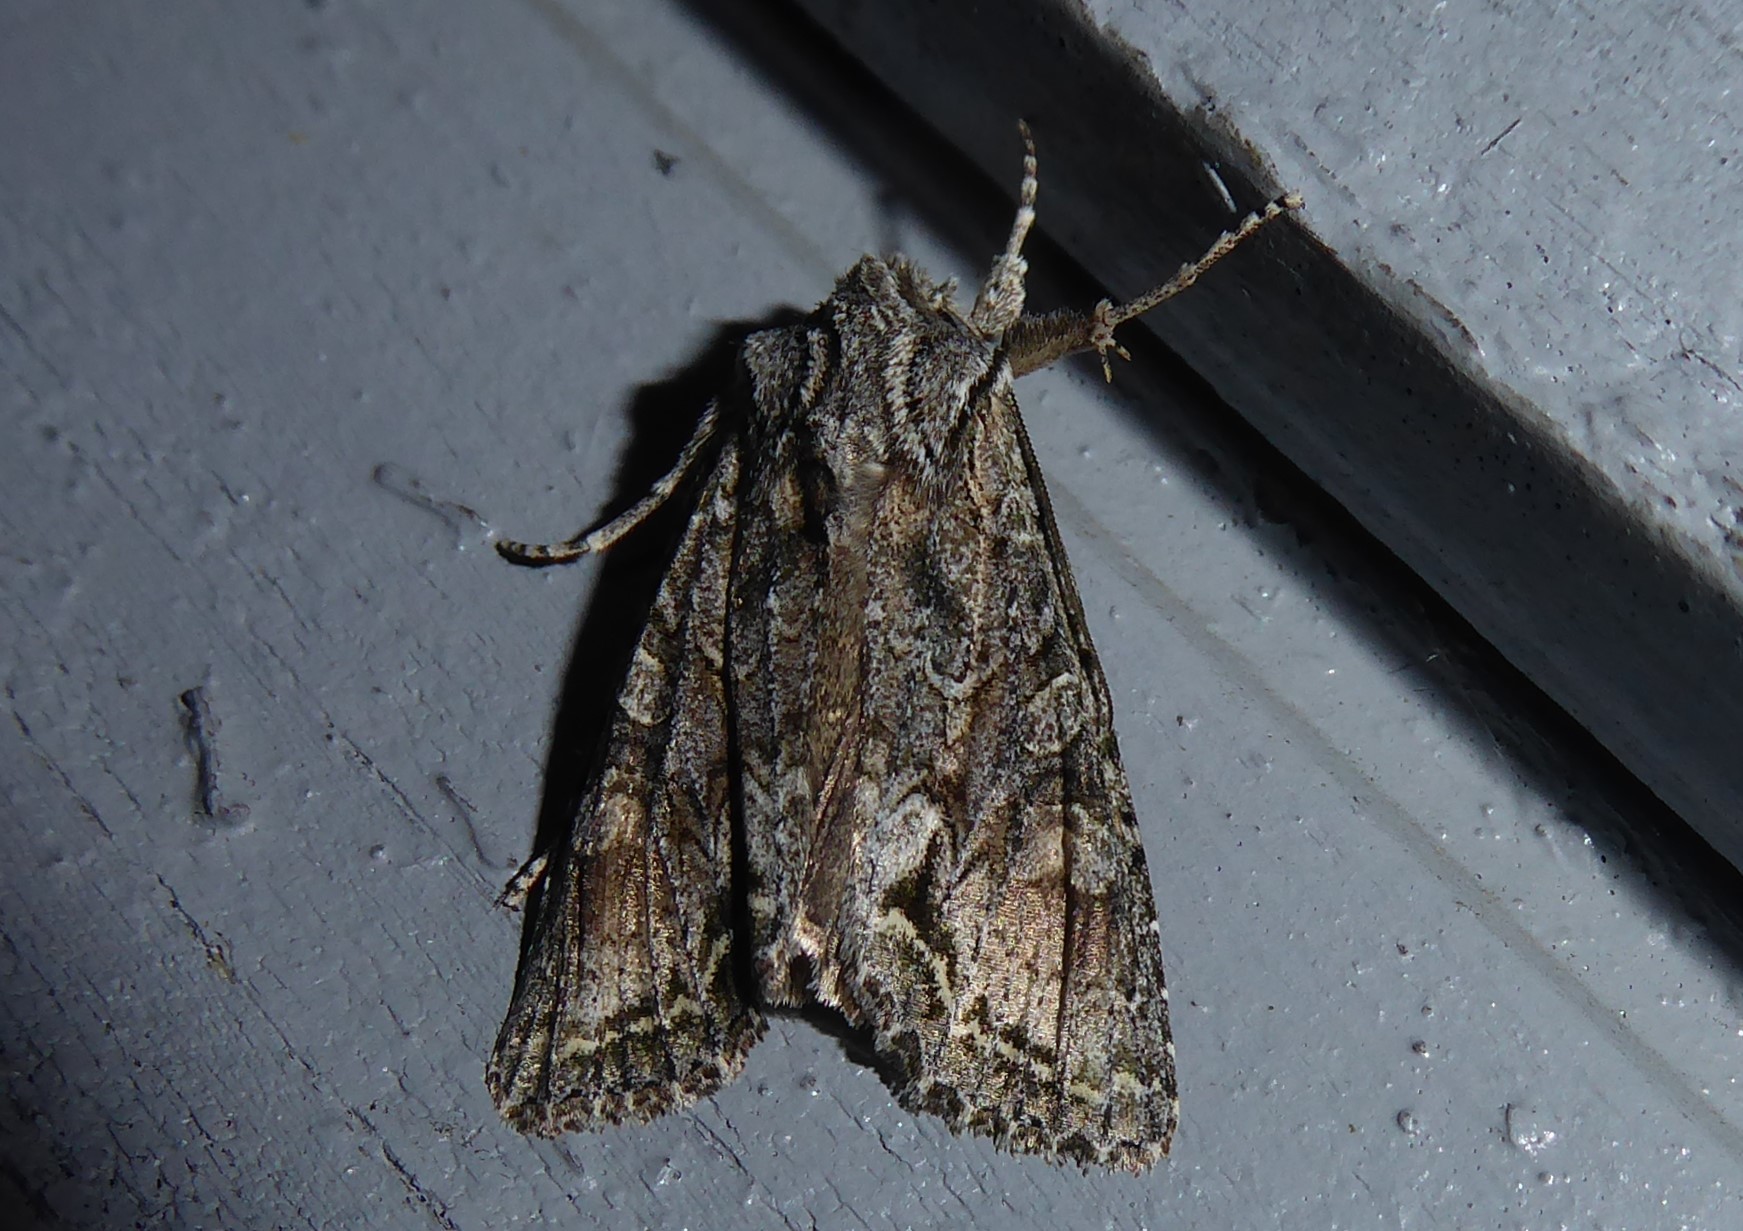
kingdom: Animalia
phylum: Arthropoda
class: Insecta
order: Lepidoptera
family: Noctuidae
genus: Ichneutica
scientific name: Ichneutica mutans
